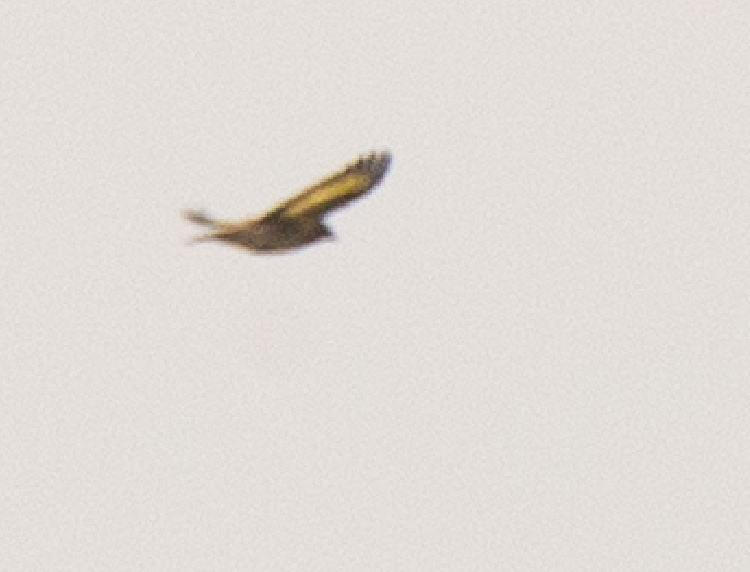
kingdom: Animalia
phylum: Chordata
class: Aves
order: Passeriformes
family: Fringillidae
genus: Carduelis
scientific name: Carduelis carduelis
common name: European goldfinch
